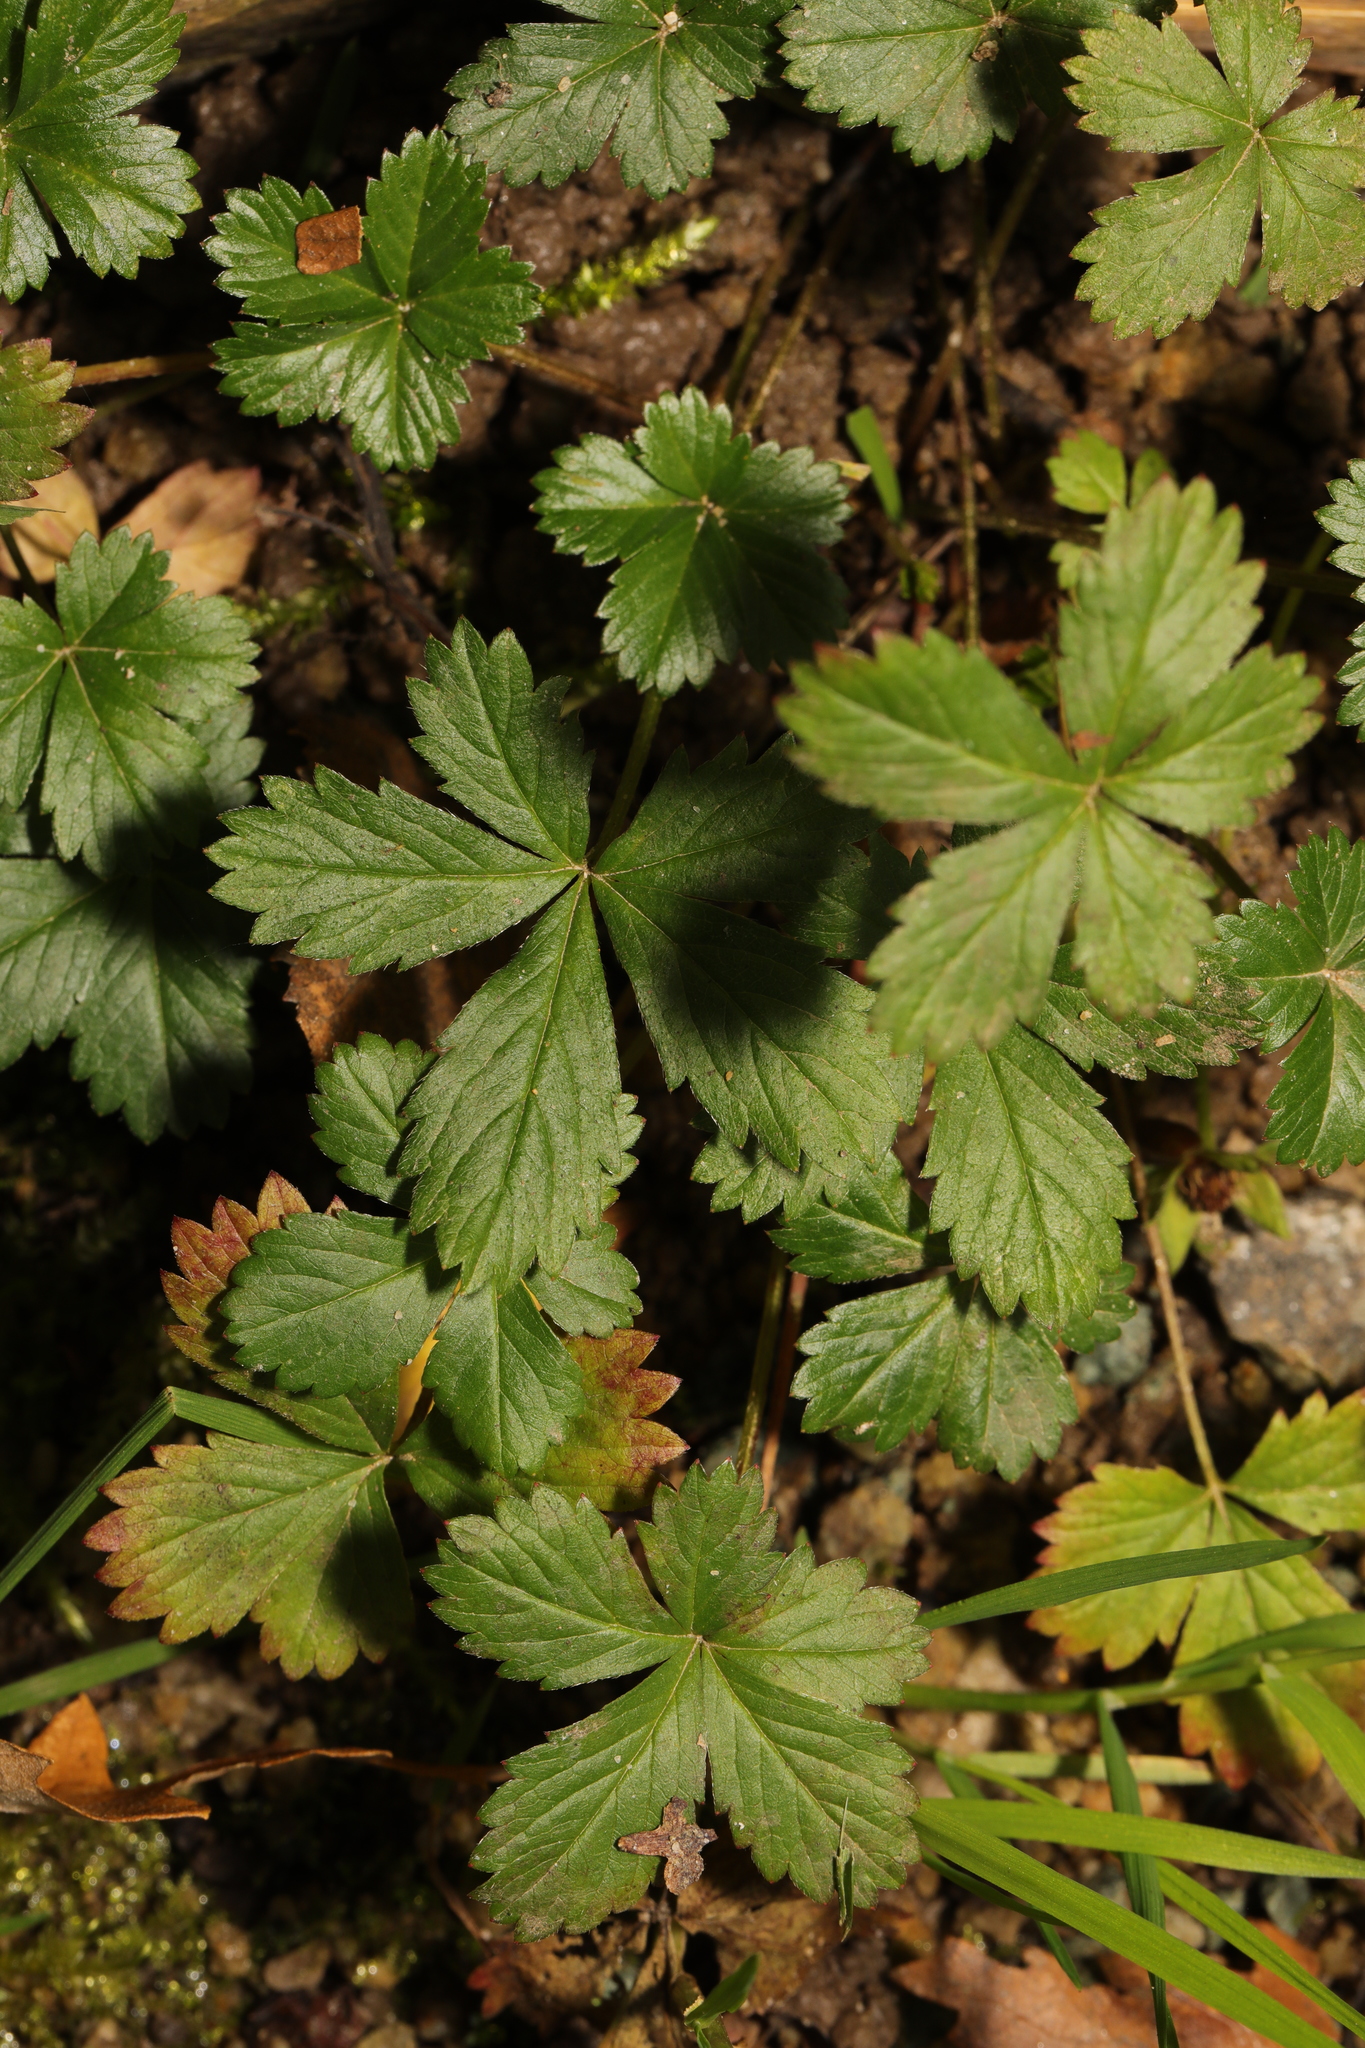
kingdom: Plantae
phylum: Tracheophyta
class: Magnoliopsida
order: Rosales
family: Rosaceae
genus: Potentilla
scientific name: Potentilla reptans
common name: Creeping cinquefoil
